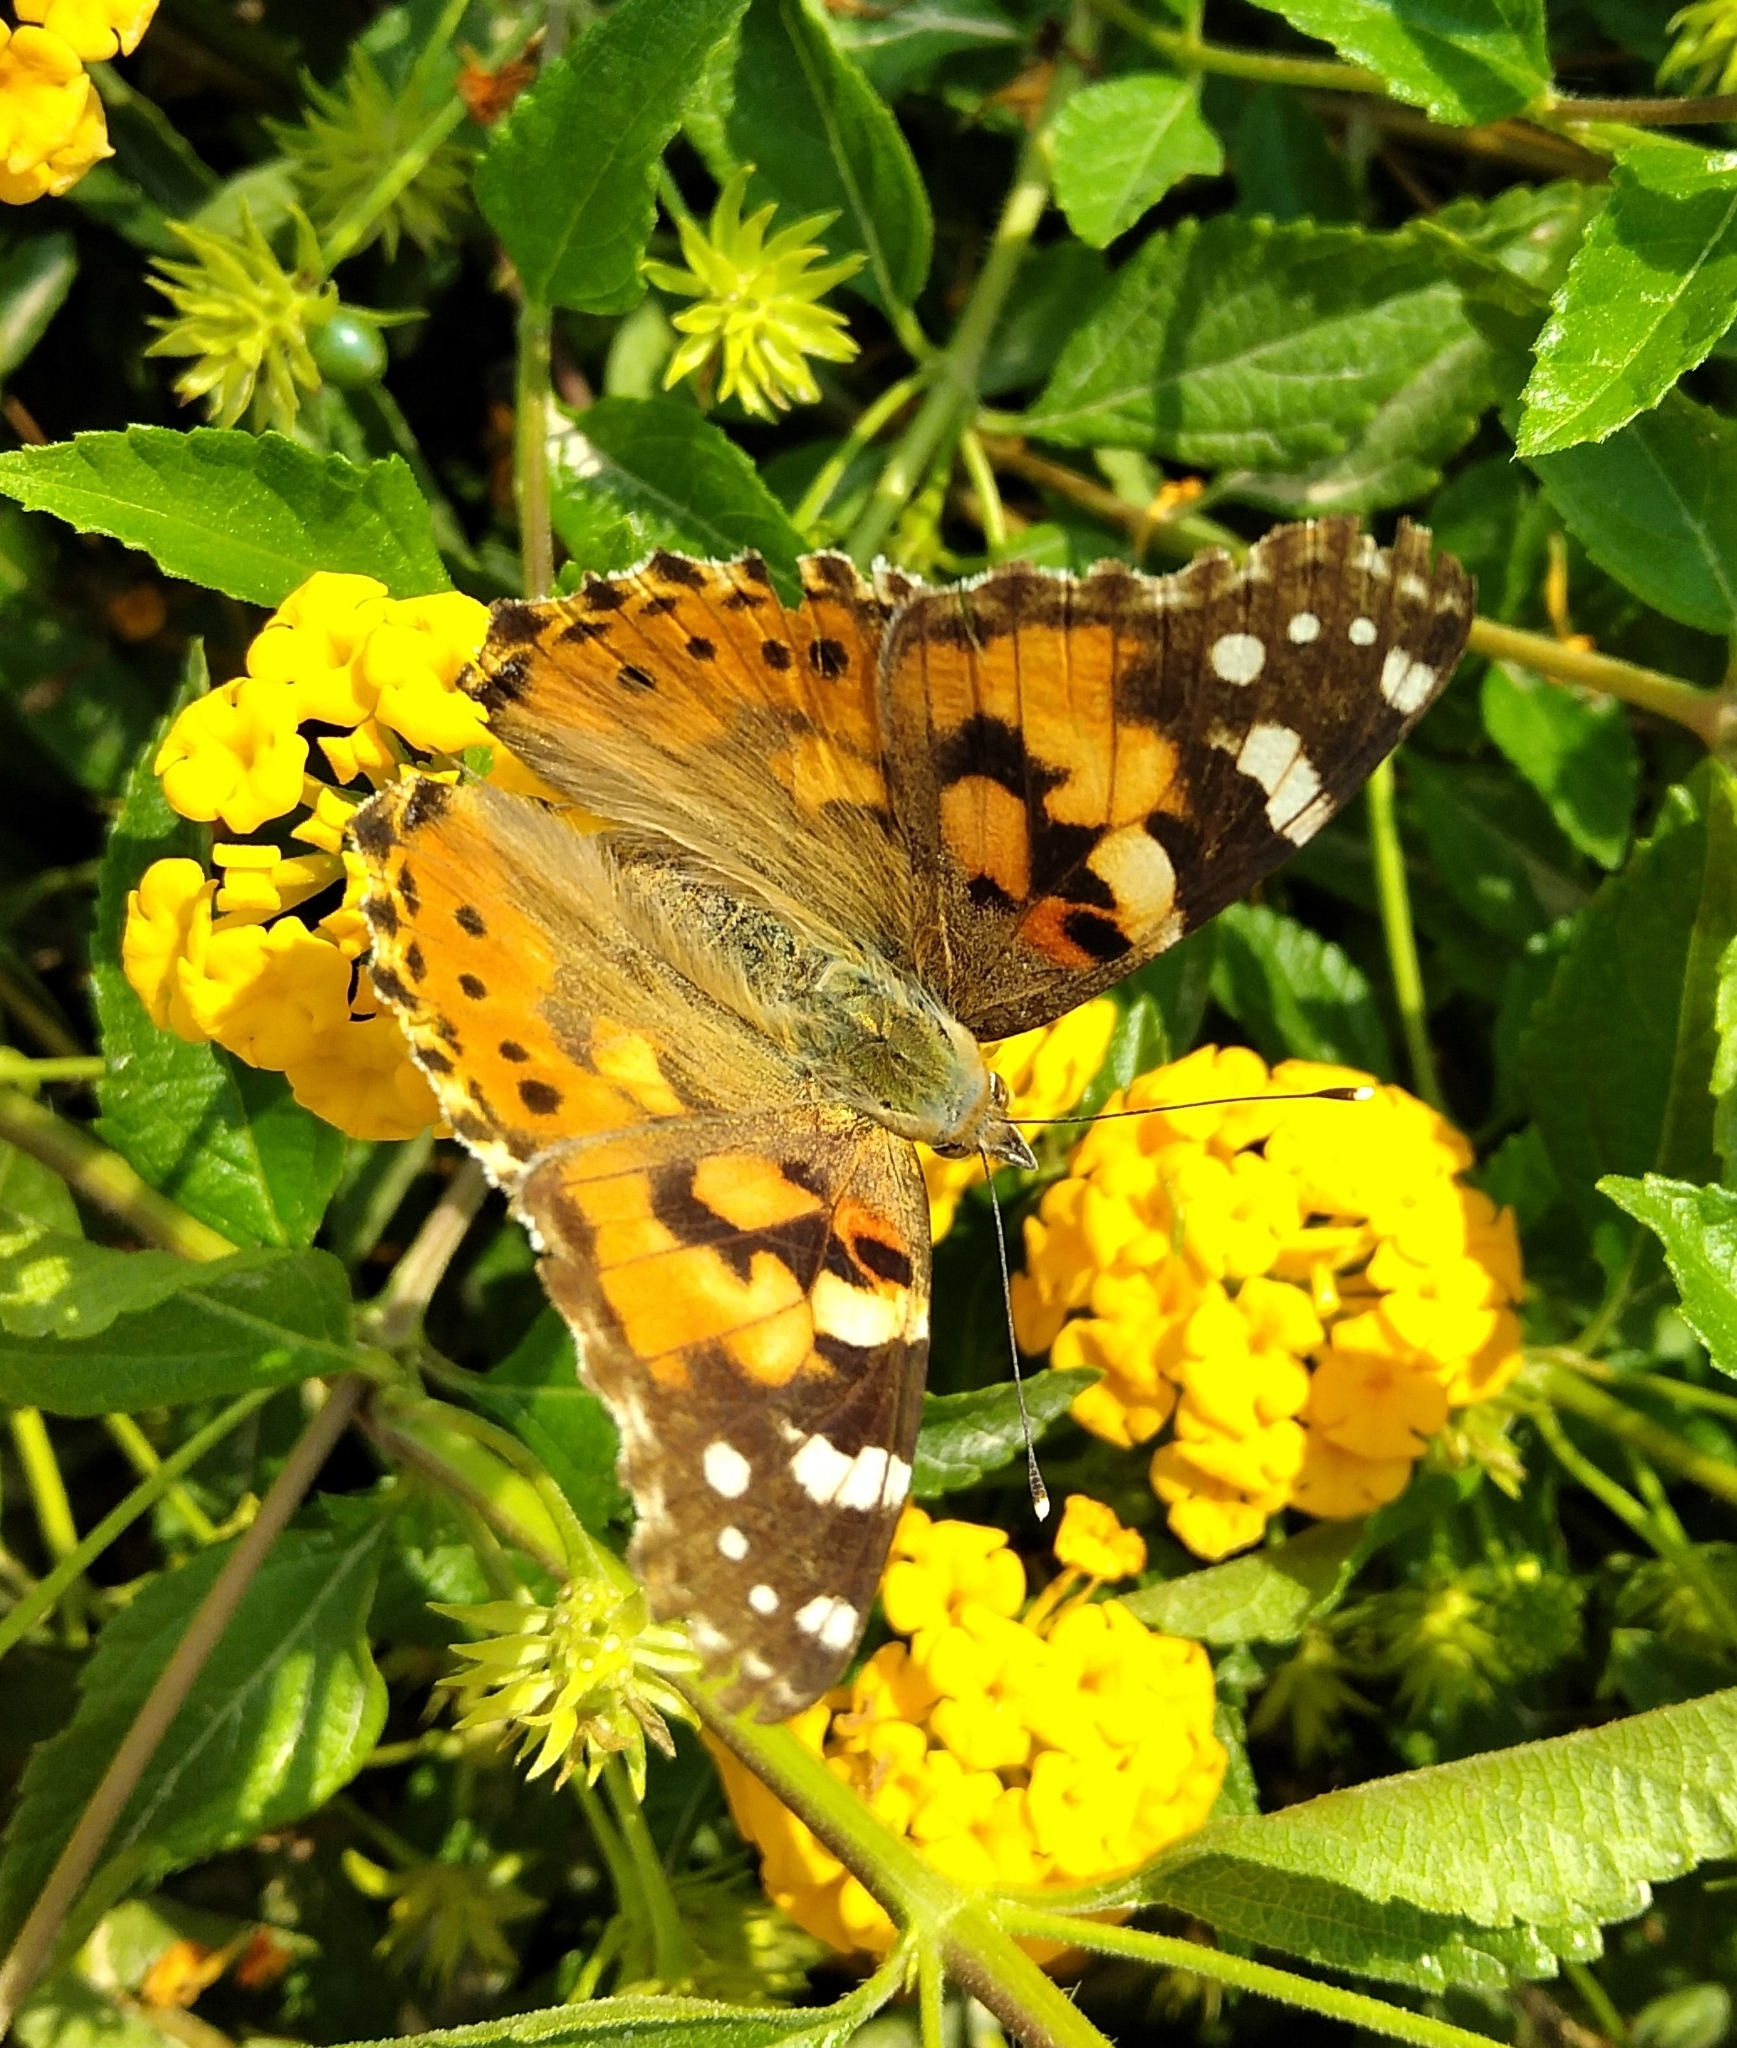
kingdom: Animalia
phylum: Arthropoda
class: Insecta
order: Lepidoptera
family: Nymphalidae
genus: Vanessa
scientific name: Vanessa cardui
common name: Painted lady
